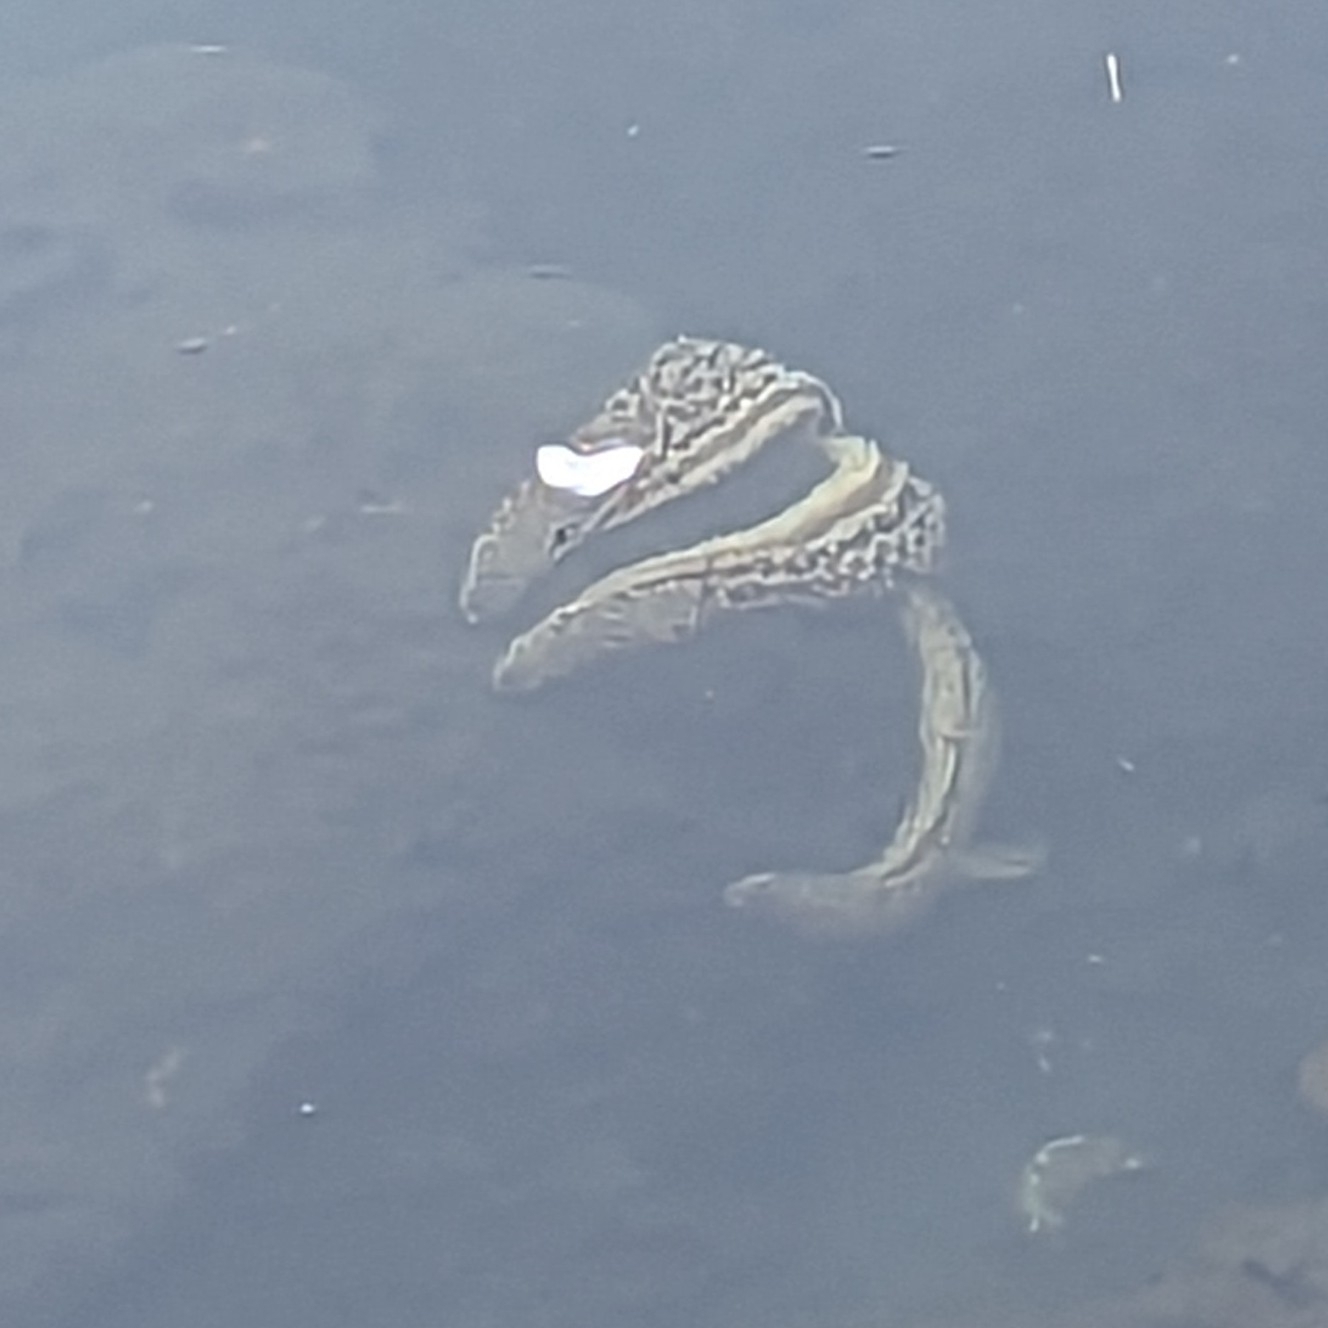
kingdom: Animalia
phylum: Echinodermata
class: Asteroidea
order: Forcipulatida
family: Asteriidae
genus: Pisaster
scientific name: Pisaster giganteus
